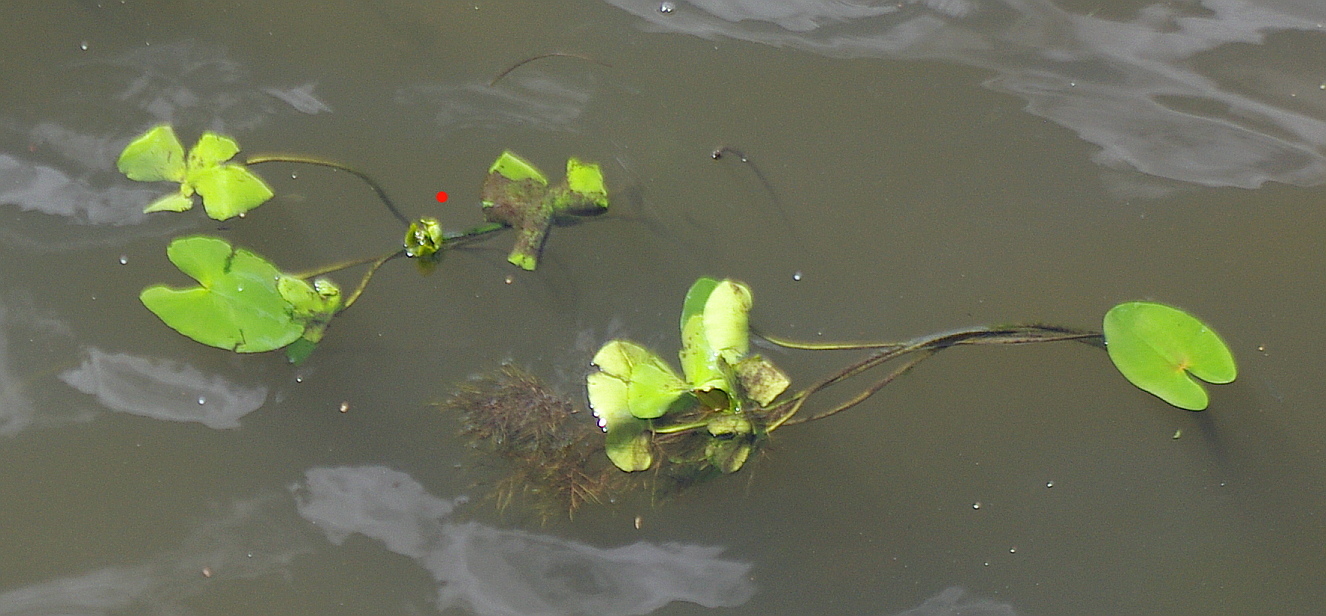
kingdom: Plantae
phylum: Tracheophyta
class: Magnoliopsida
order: Nymphaeales
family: Nymphaeaceae
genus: Nuphar
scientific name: Nuphar lutea
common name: Yellow water-lily
